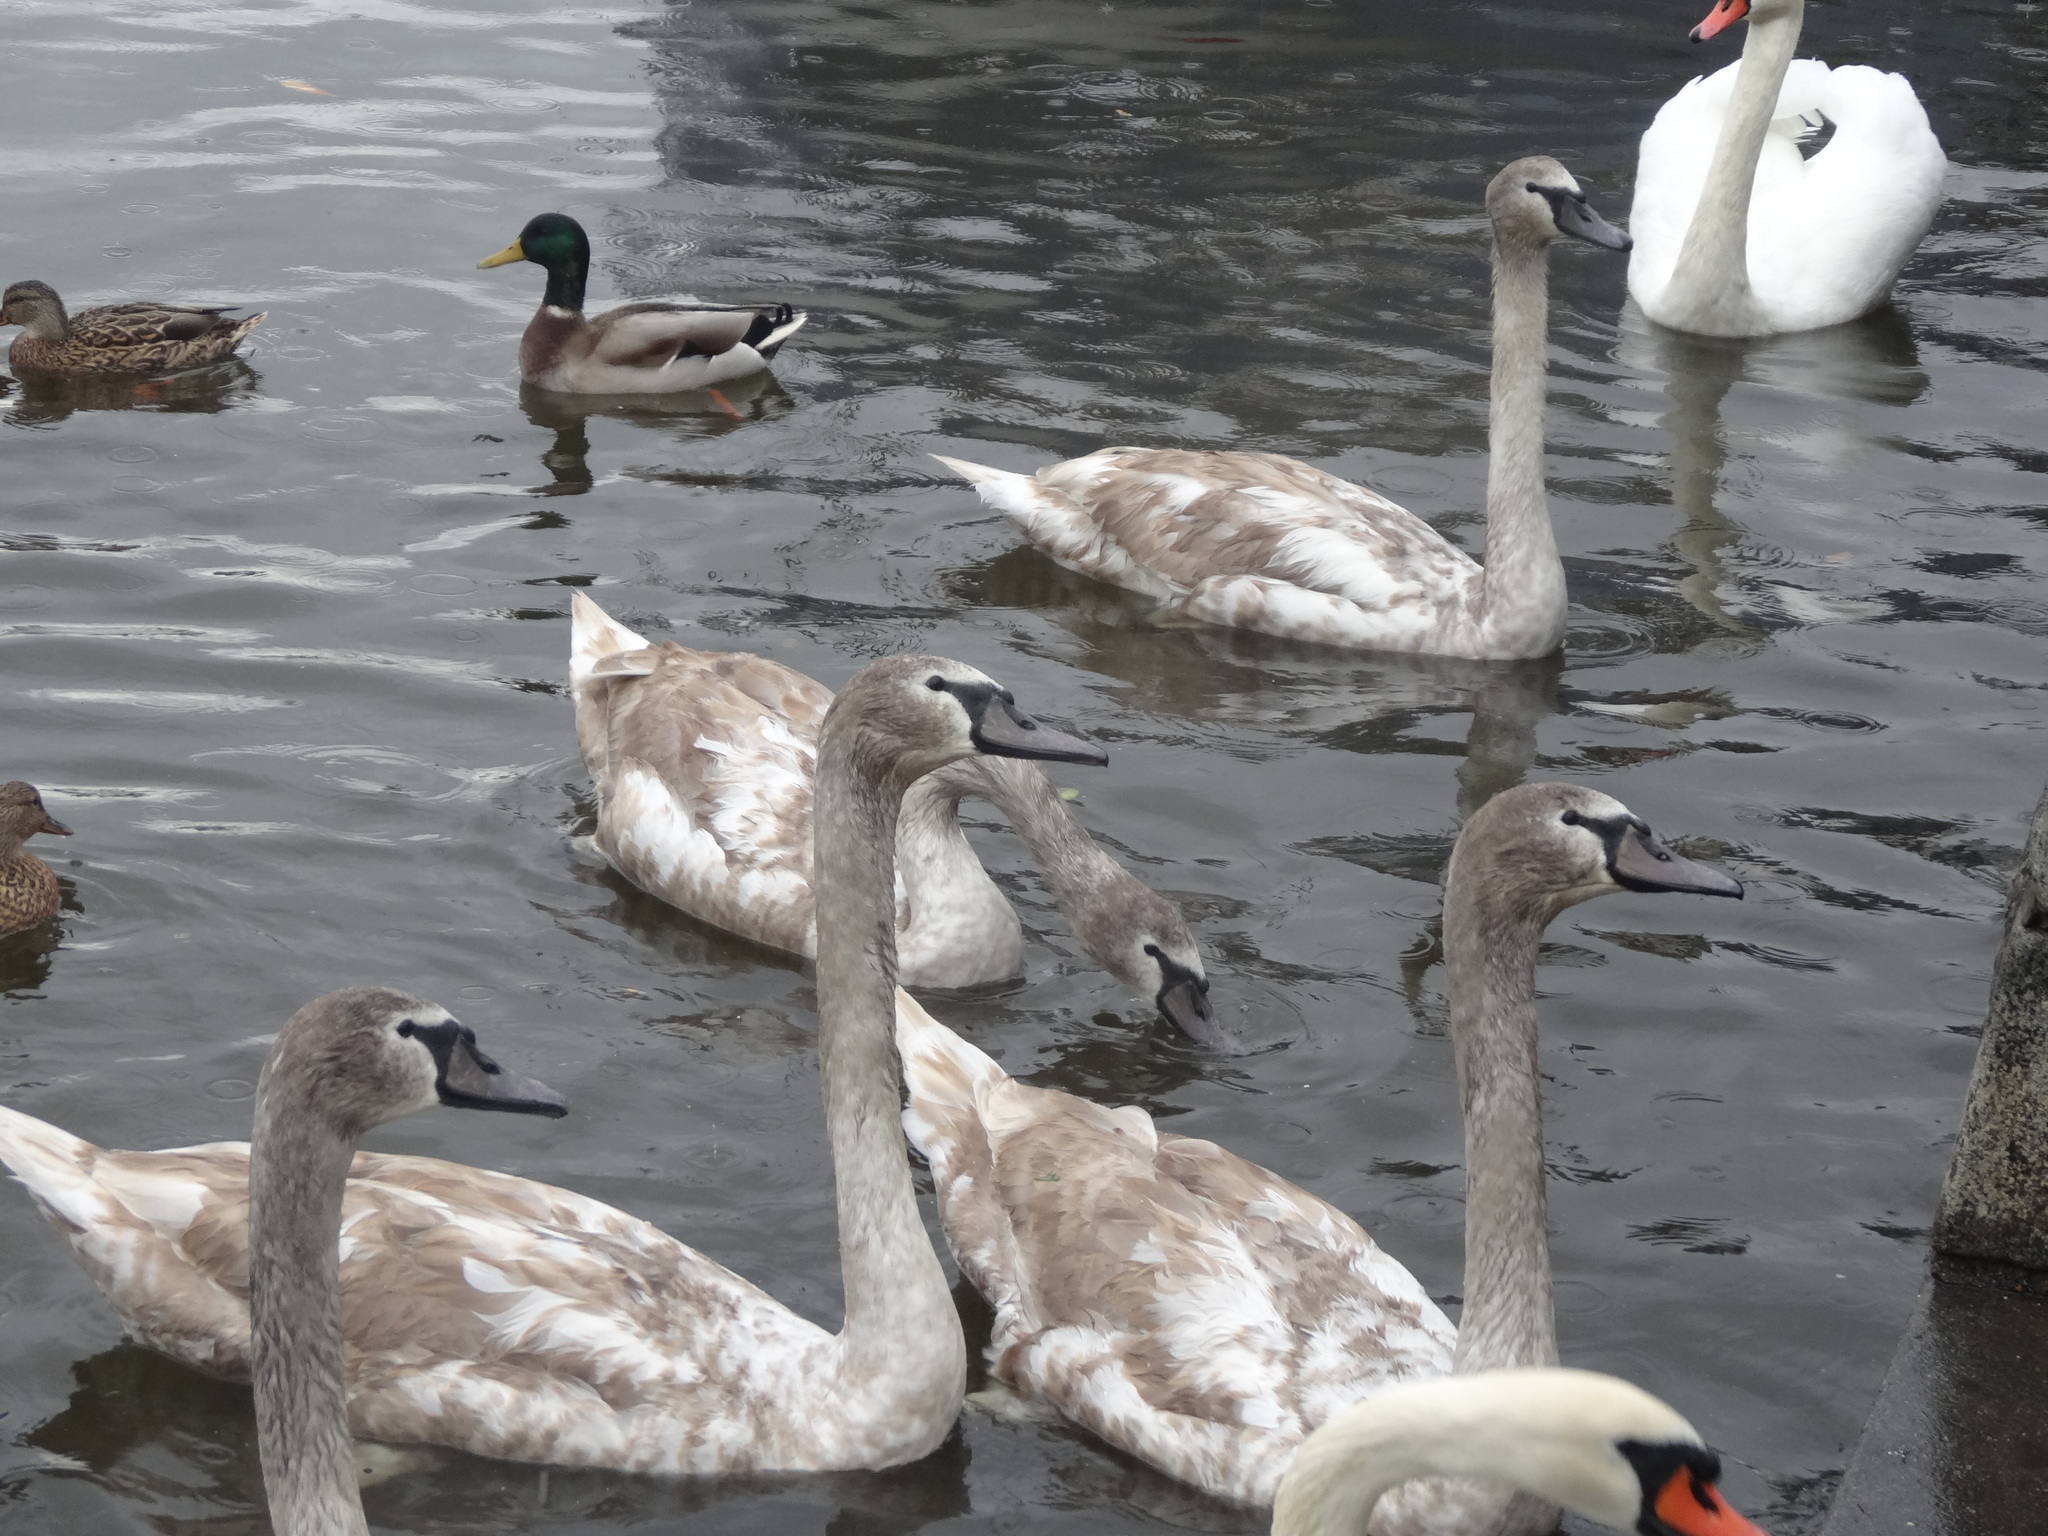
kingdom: Animalia
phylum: Chordata
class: Aves
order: Anseriformes
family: Anatidae
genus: Cygnus
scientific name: Cygnus olor
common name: Mute swan
